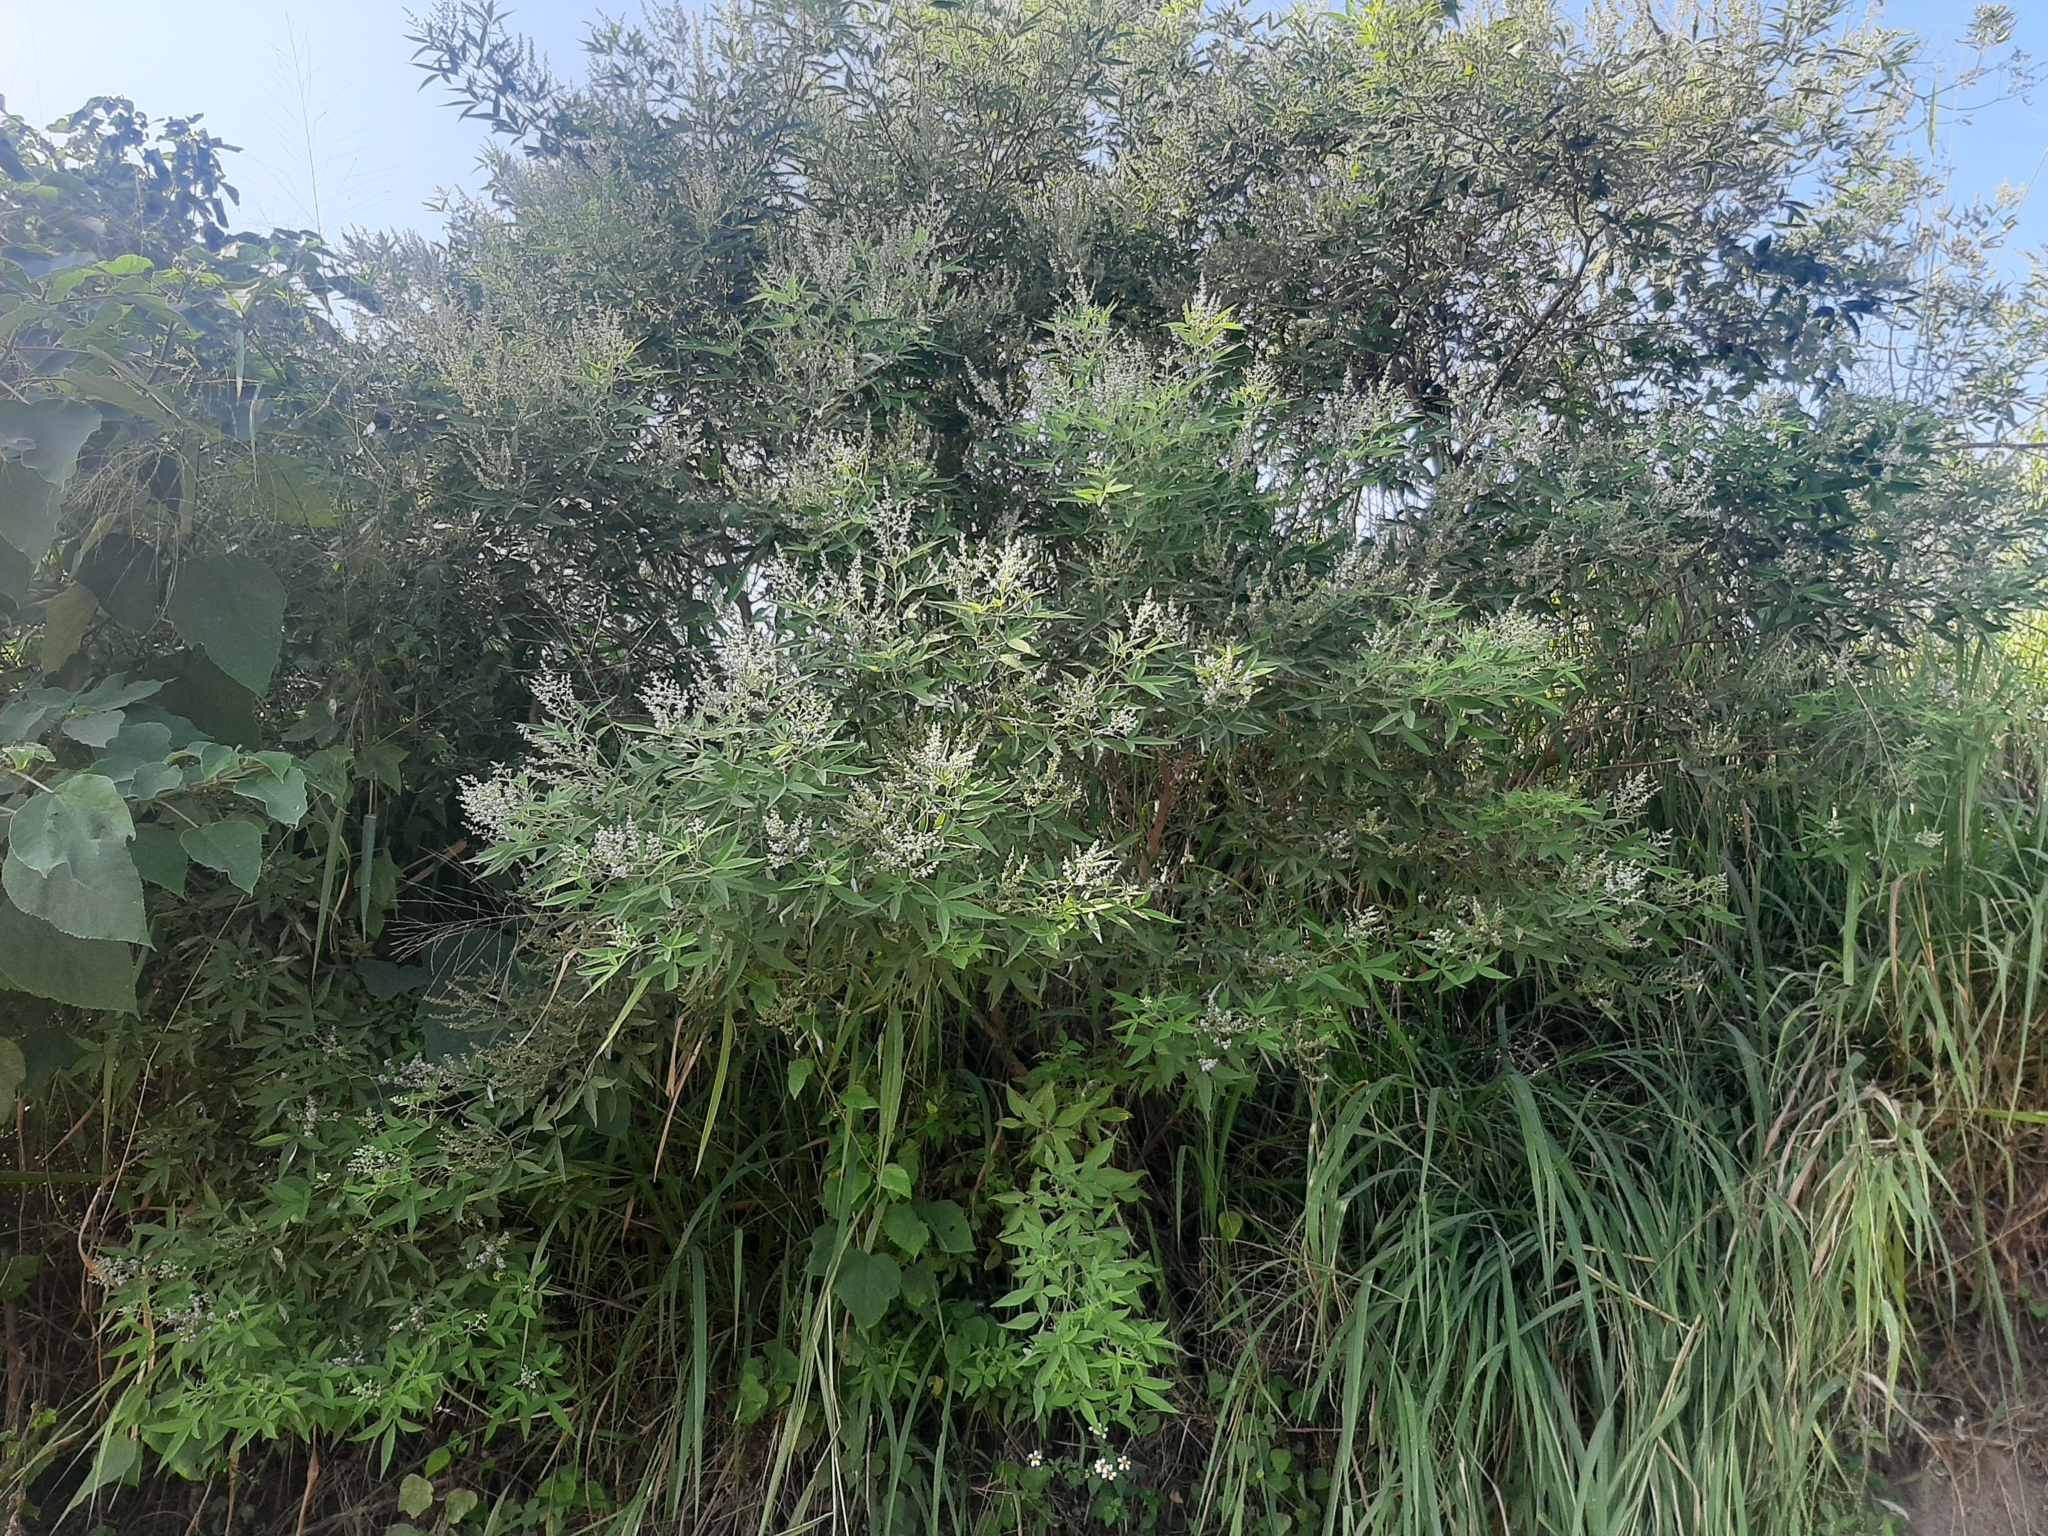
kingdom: Plantae
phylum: Tracheophyta
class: Magnoliopsida
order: Lamiales
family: Lamiaceae
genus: Vitex
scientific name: Vitex negundo
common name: Chinese chastetree
